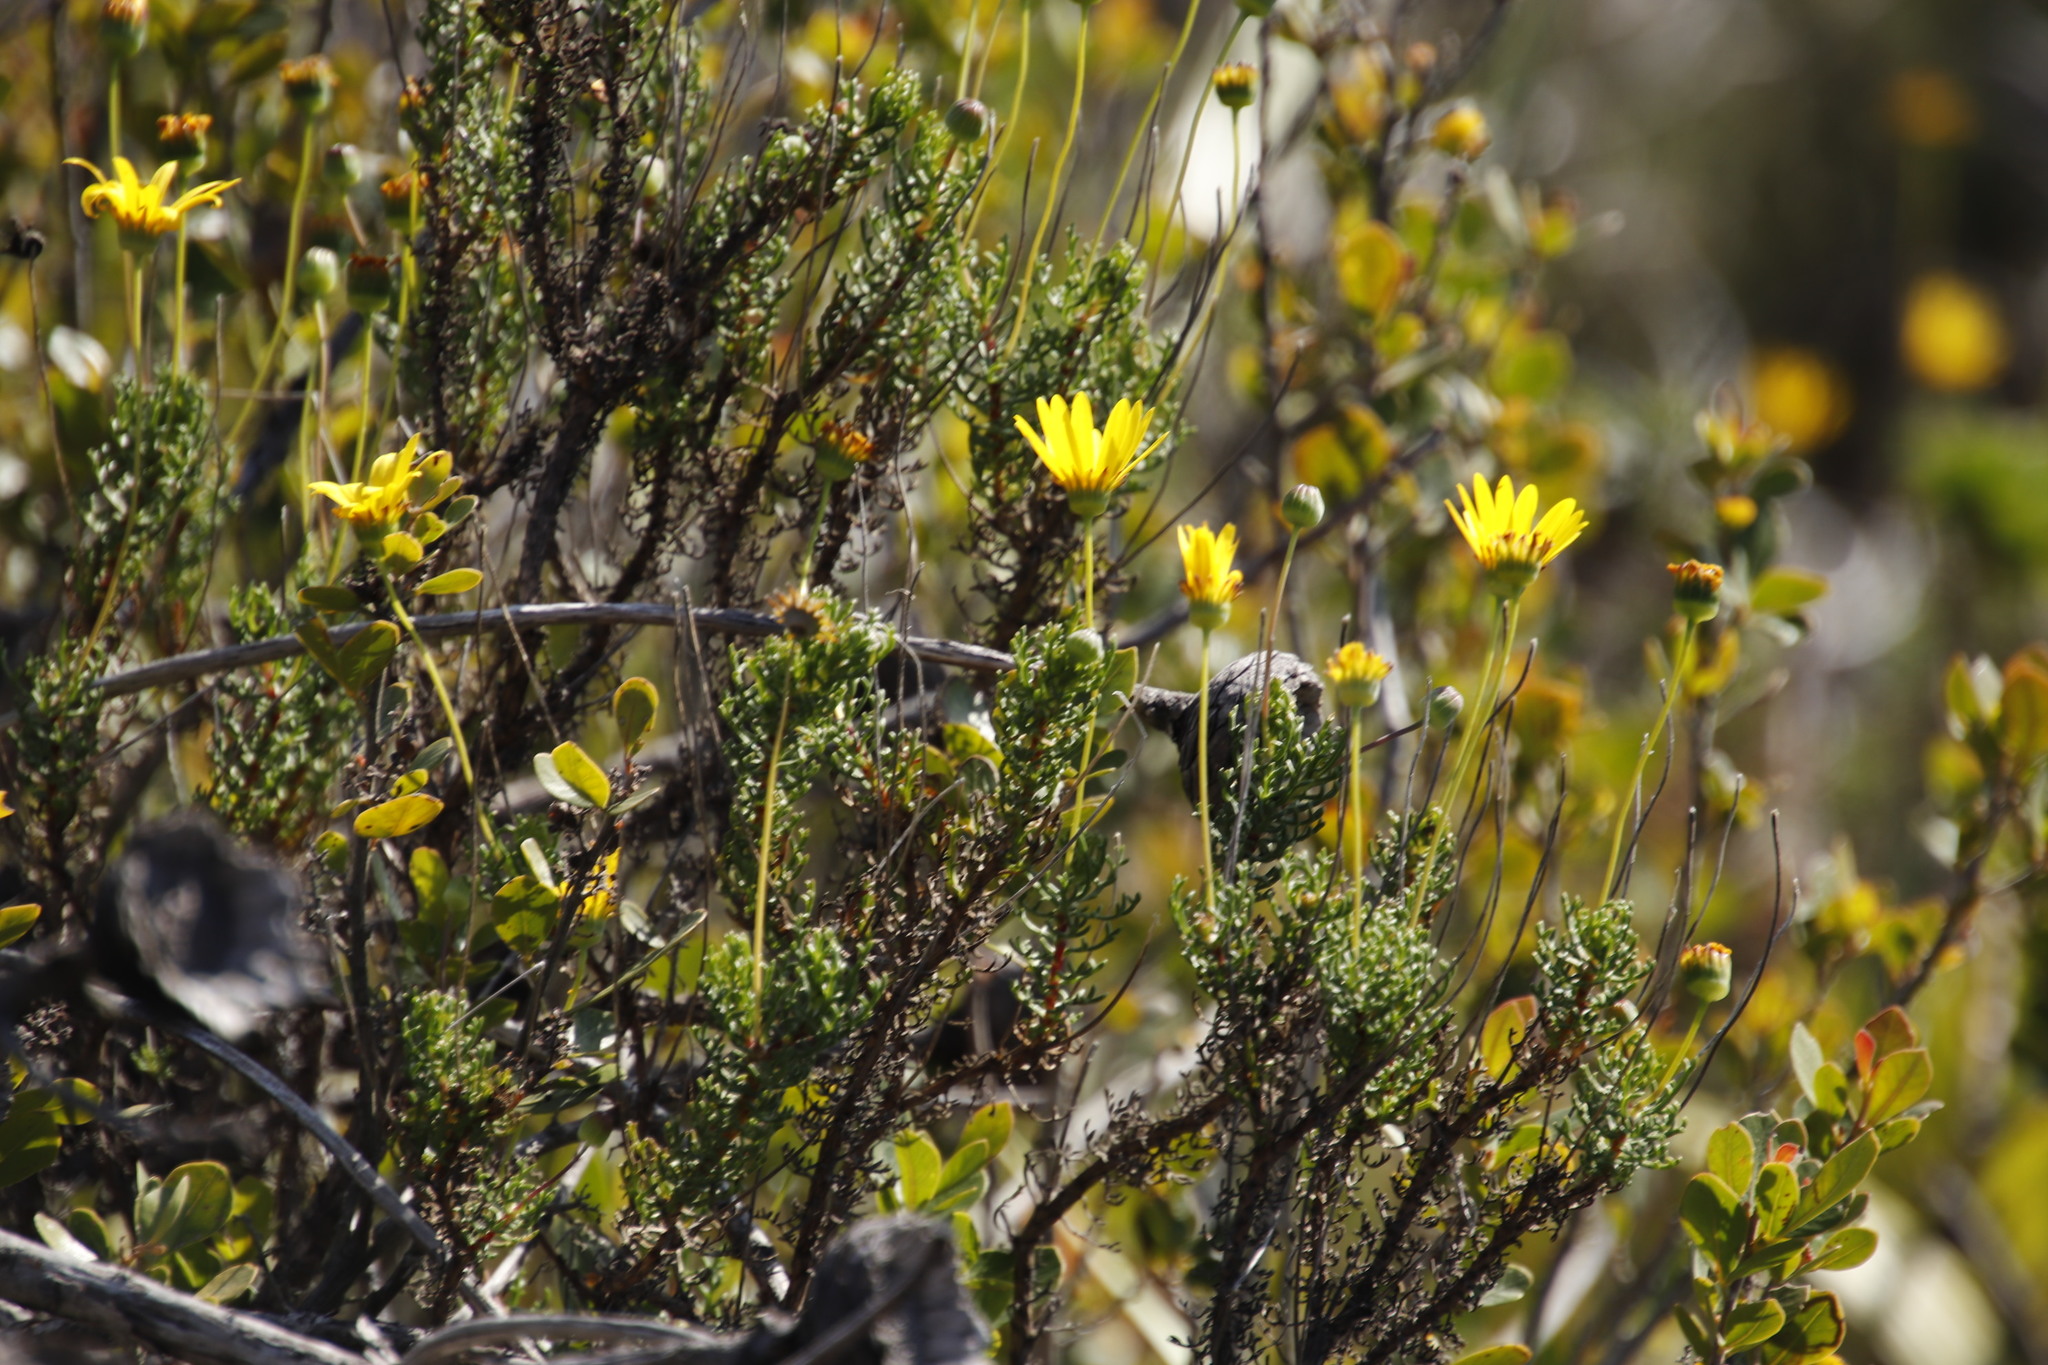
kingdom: Plantae
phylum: Tracheophyta
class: Magnoliopsida
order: Asterales
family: Asteraceae
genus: Euryops
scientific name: Euryops abrotanifolius
